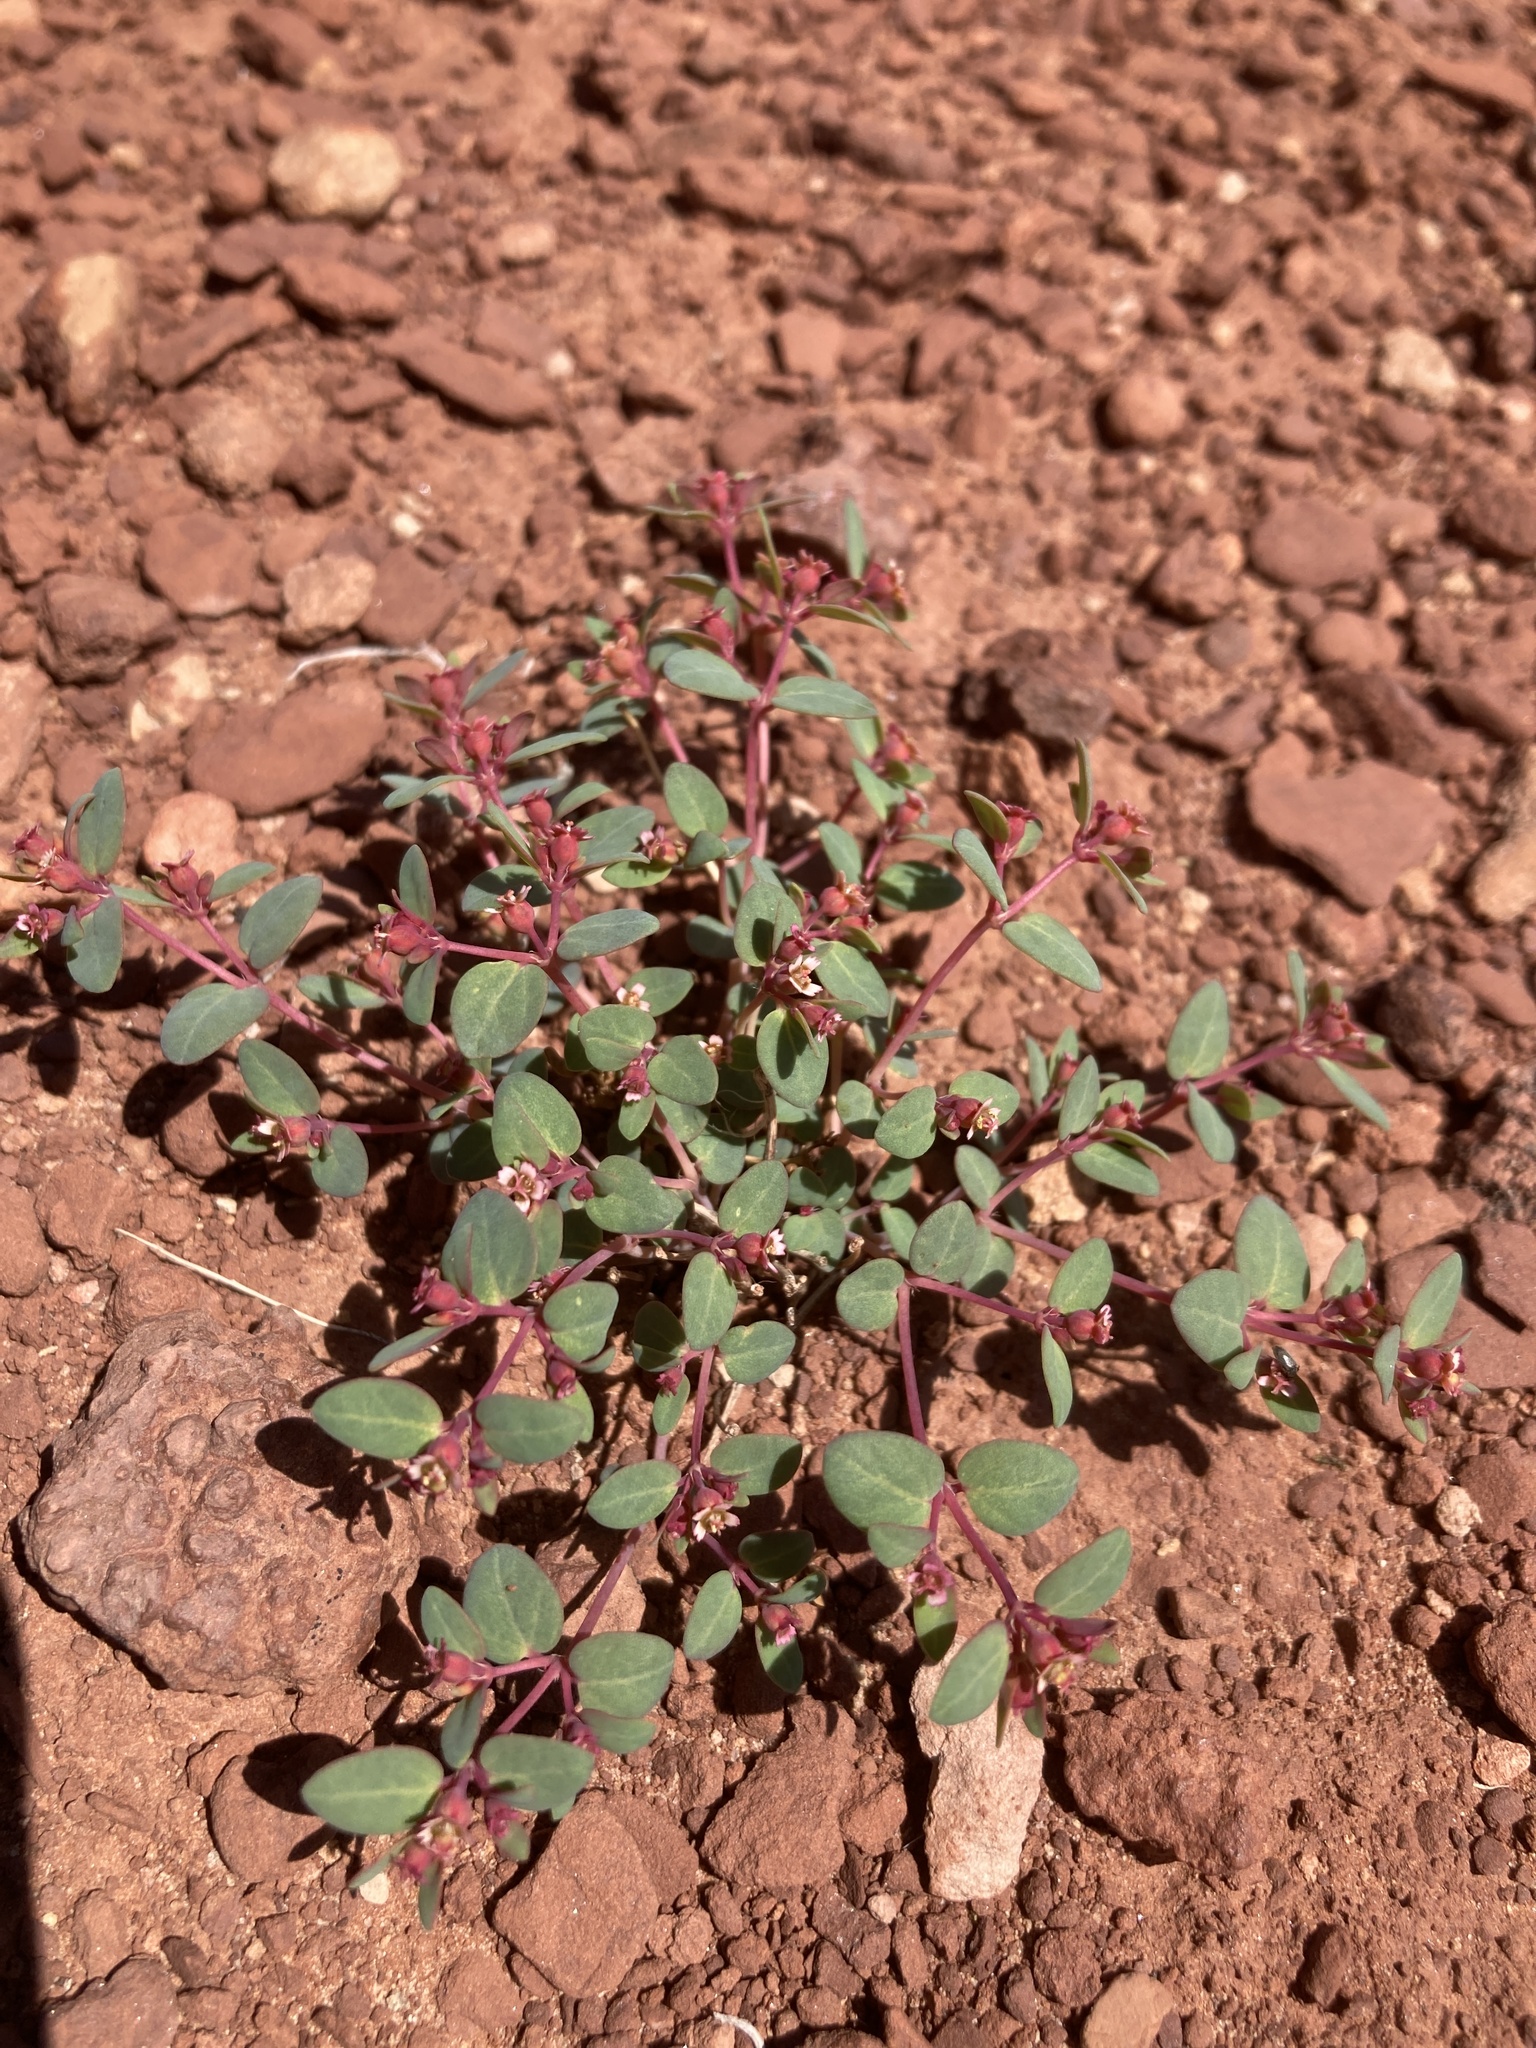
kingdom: Plantae
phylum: Tracheophyta
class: Magnoliopsida
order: Malpighiales
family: Euphorbiaceae
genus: Euphorbia
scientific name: Euphorbia fendleri
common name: Fendler's euphorbia
